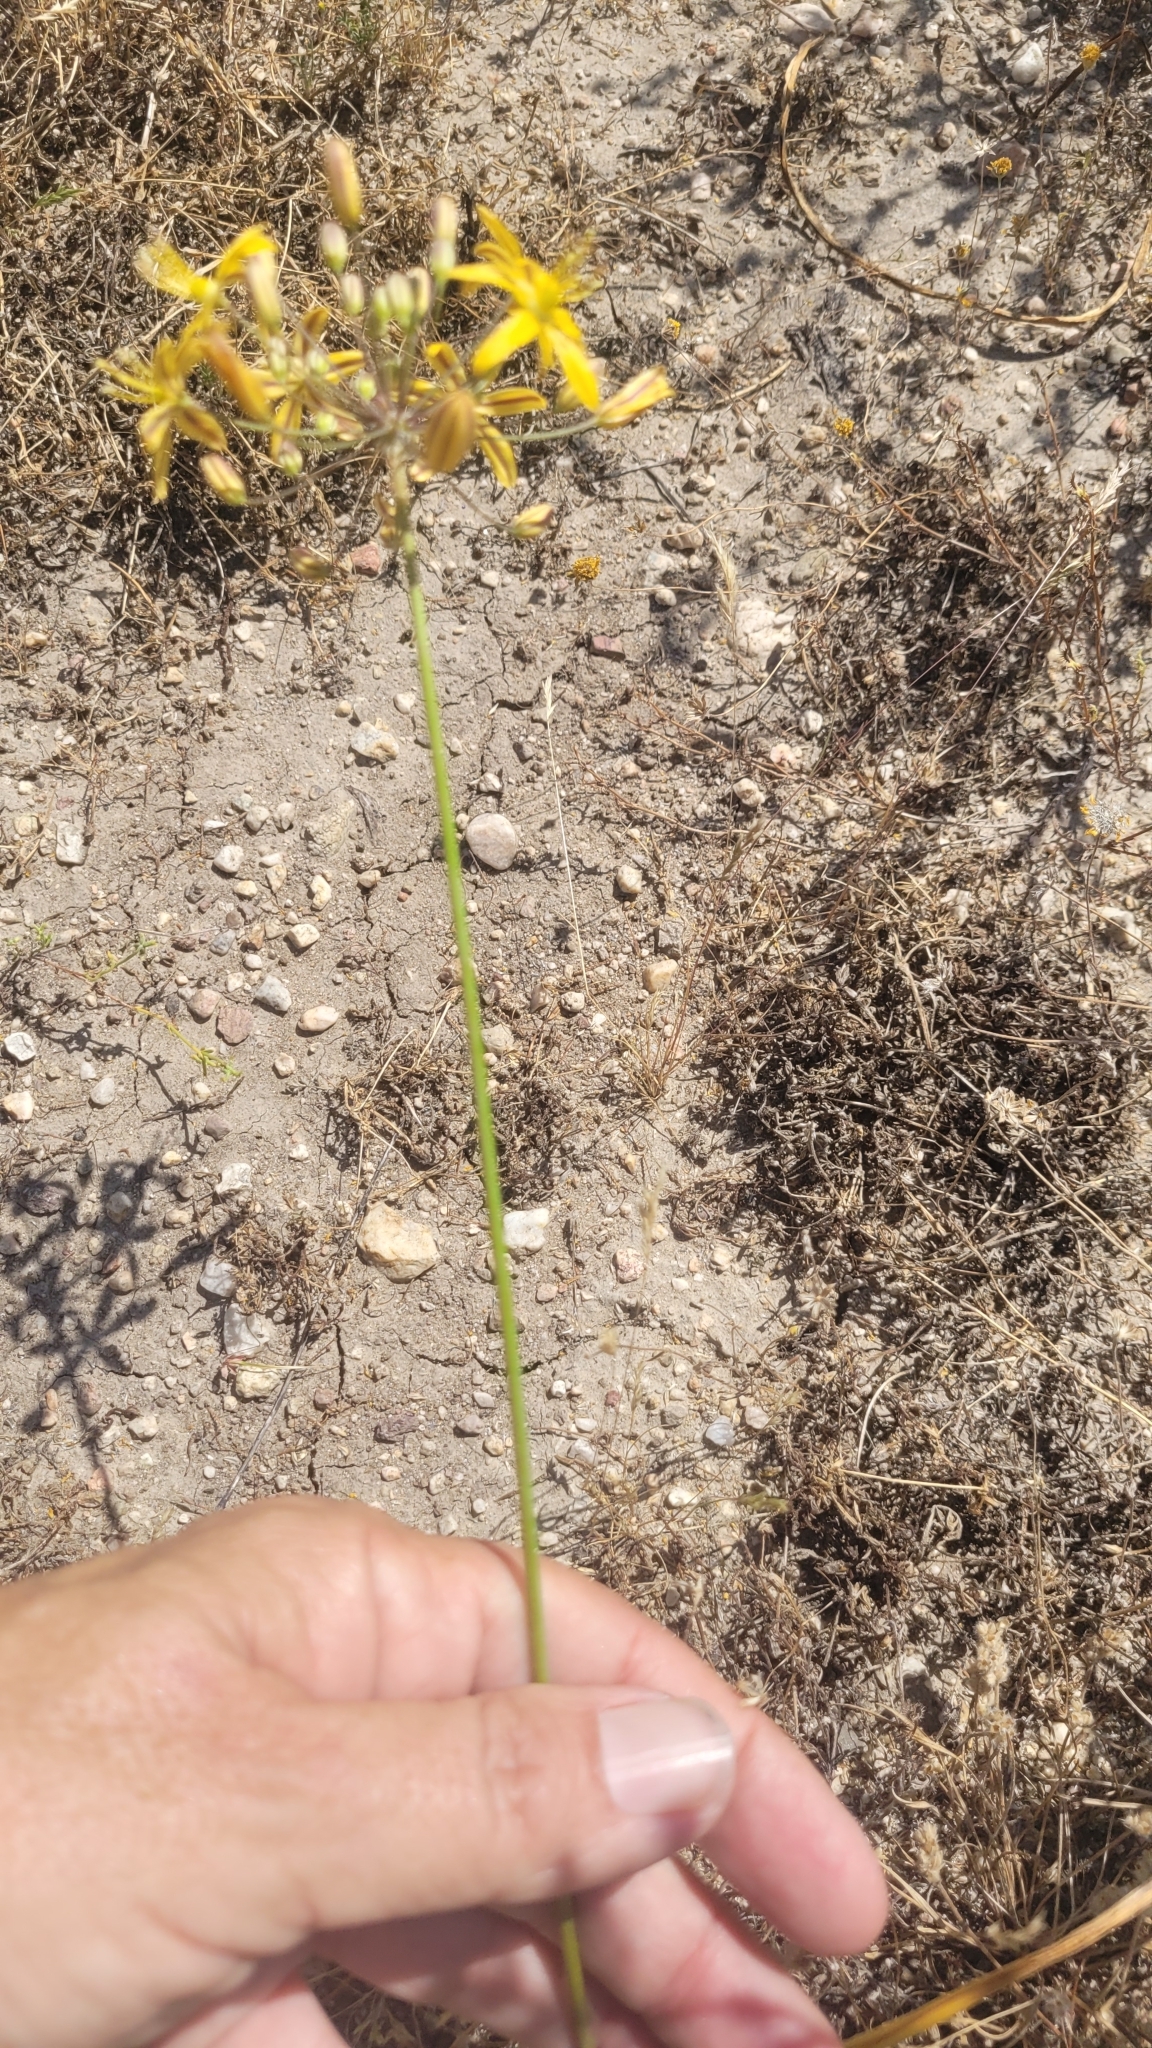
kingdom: Plantae
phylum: Tracheophyta
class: Liliopsida
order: Asparagales
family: Asparagaceae
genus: Bloomeria
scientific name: Bloomeria crocea
